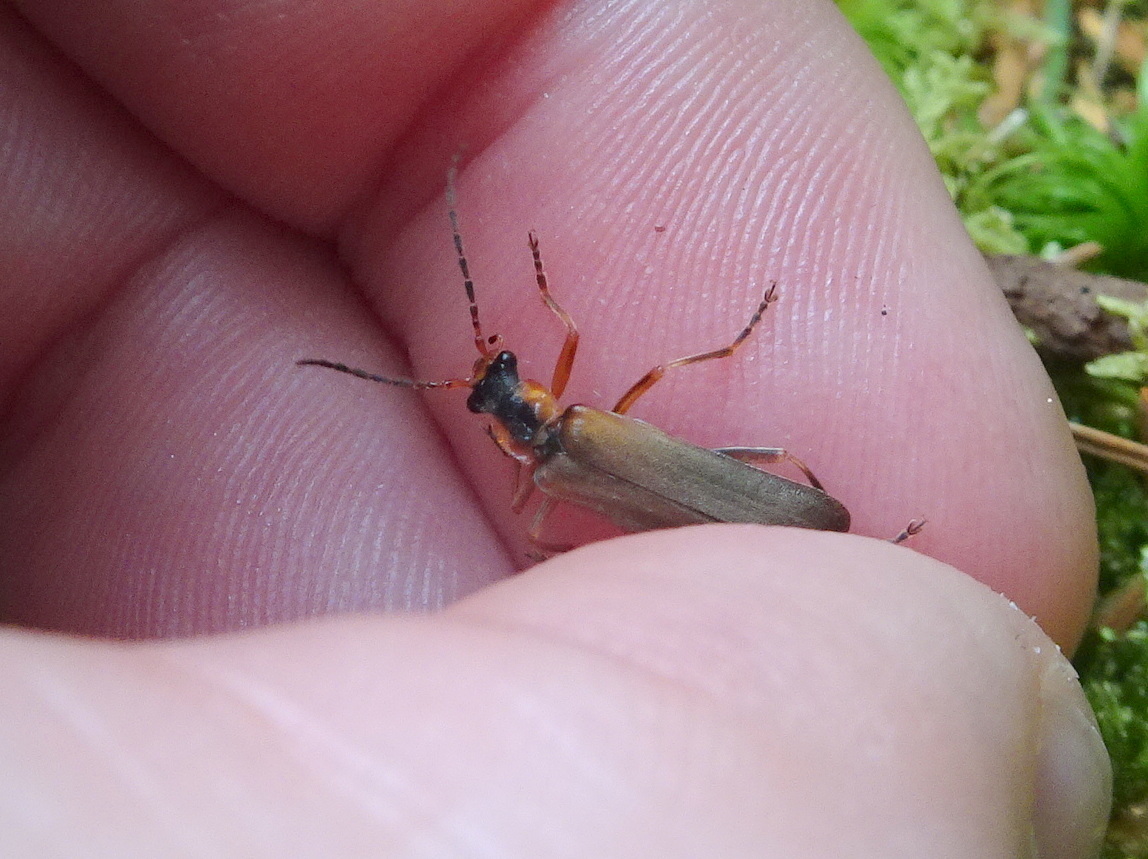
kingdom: Animalia
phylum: Arthropoda
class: Insecta
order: Coleoptera
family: Cantharidae
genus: Podabrus
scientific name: Podabrus alpinus
